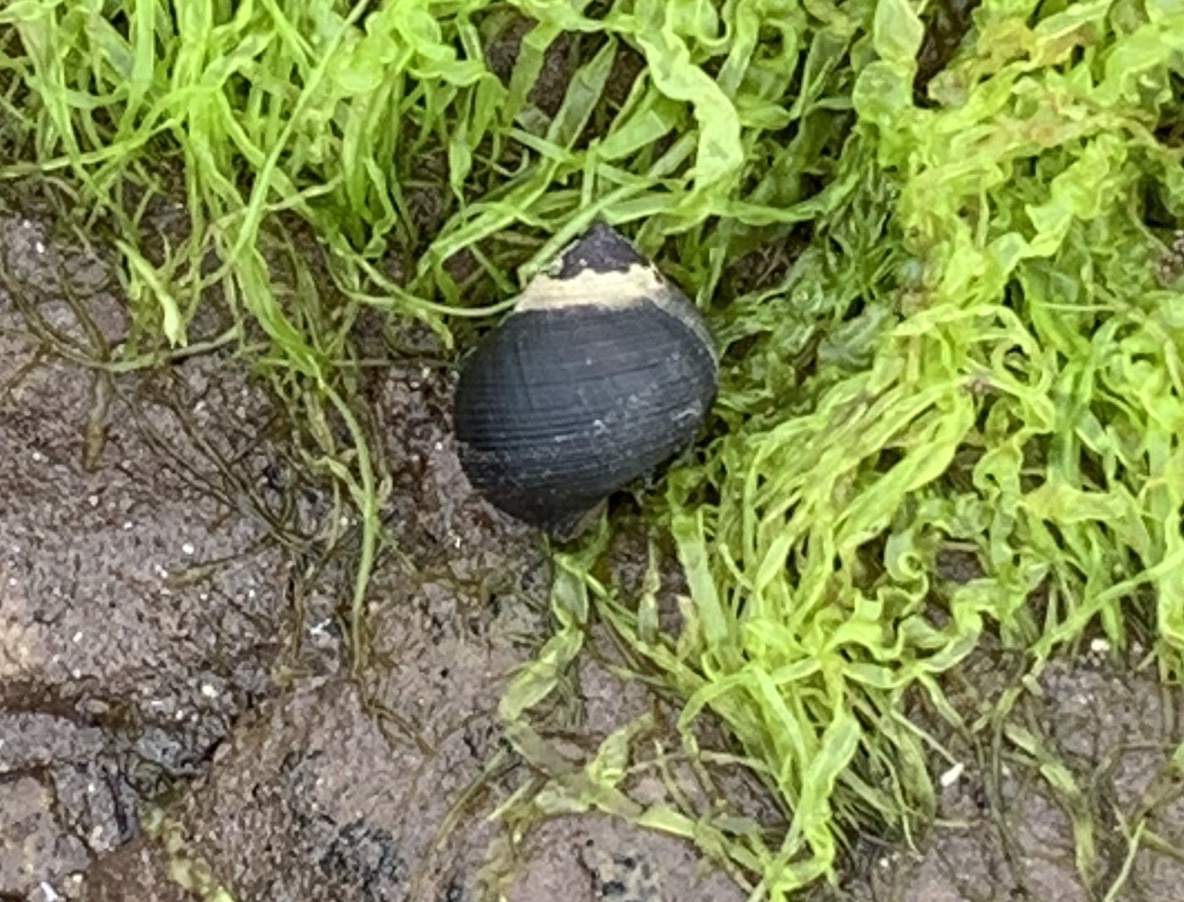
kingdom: Animalia
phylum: Mollusca
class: Gastropoda
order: Littorinimorpha
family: Littorinidae
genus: Littorina
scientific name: Littorina littorea
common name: Common periwinkle
